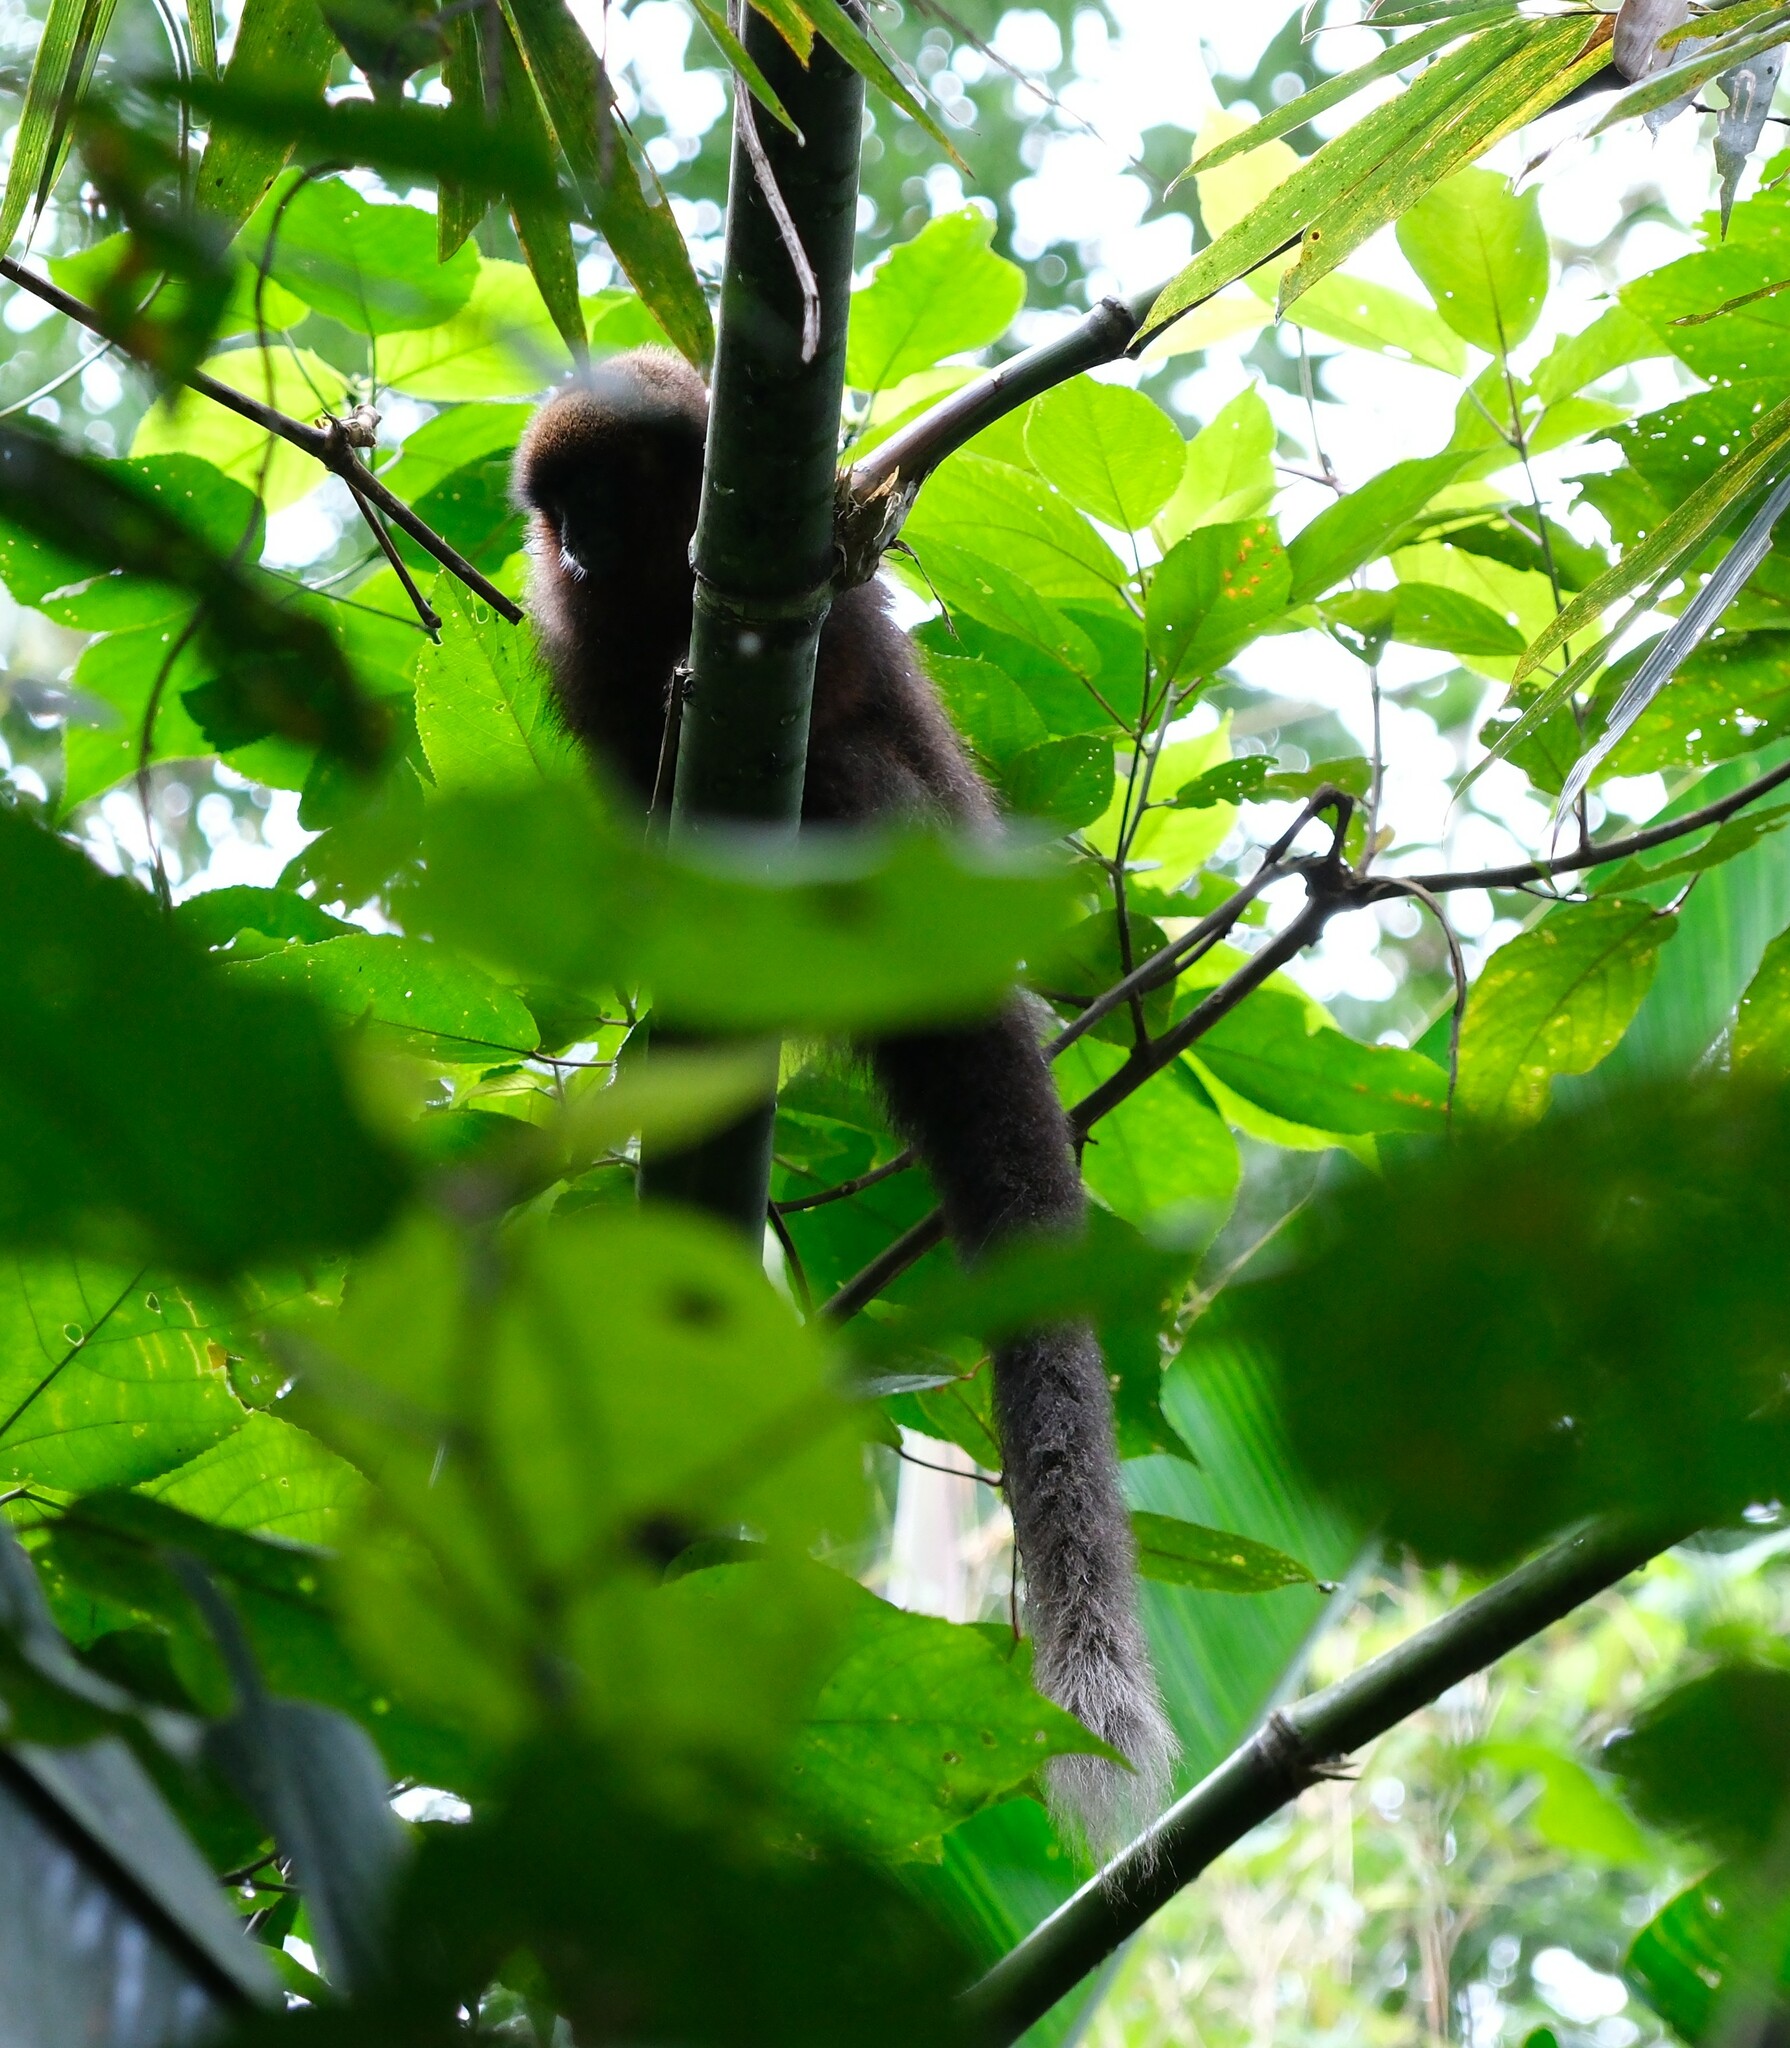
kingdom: Animalia
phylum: Chordata
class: Mammalia
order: Primates
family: Pitheciidae
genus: Plecturocebus
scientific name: Plecturocebus toppini
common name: Toppin's titi
